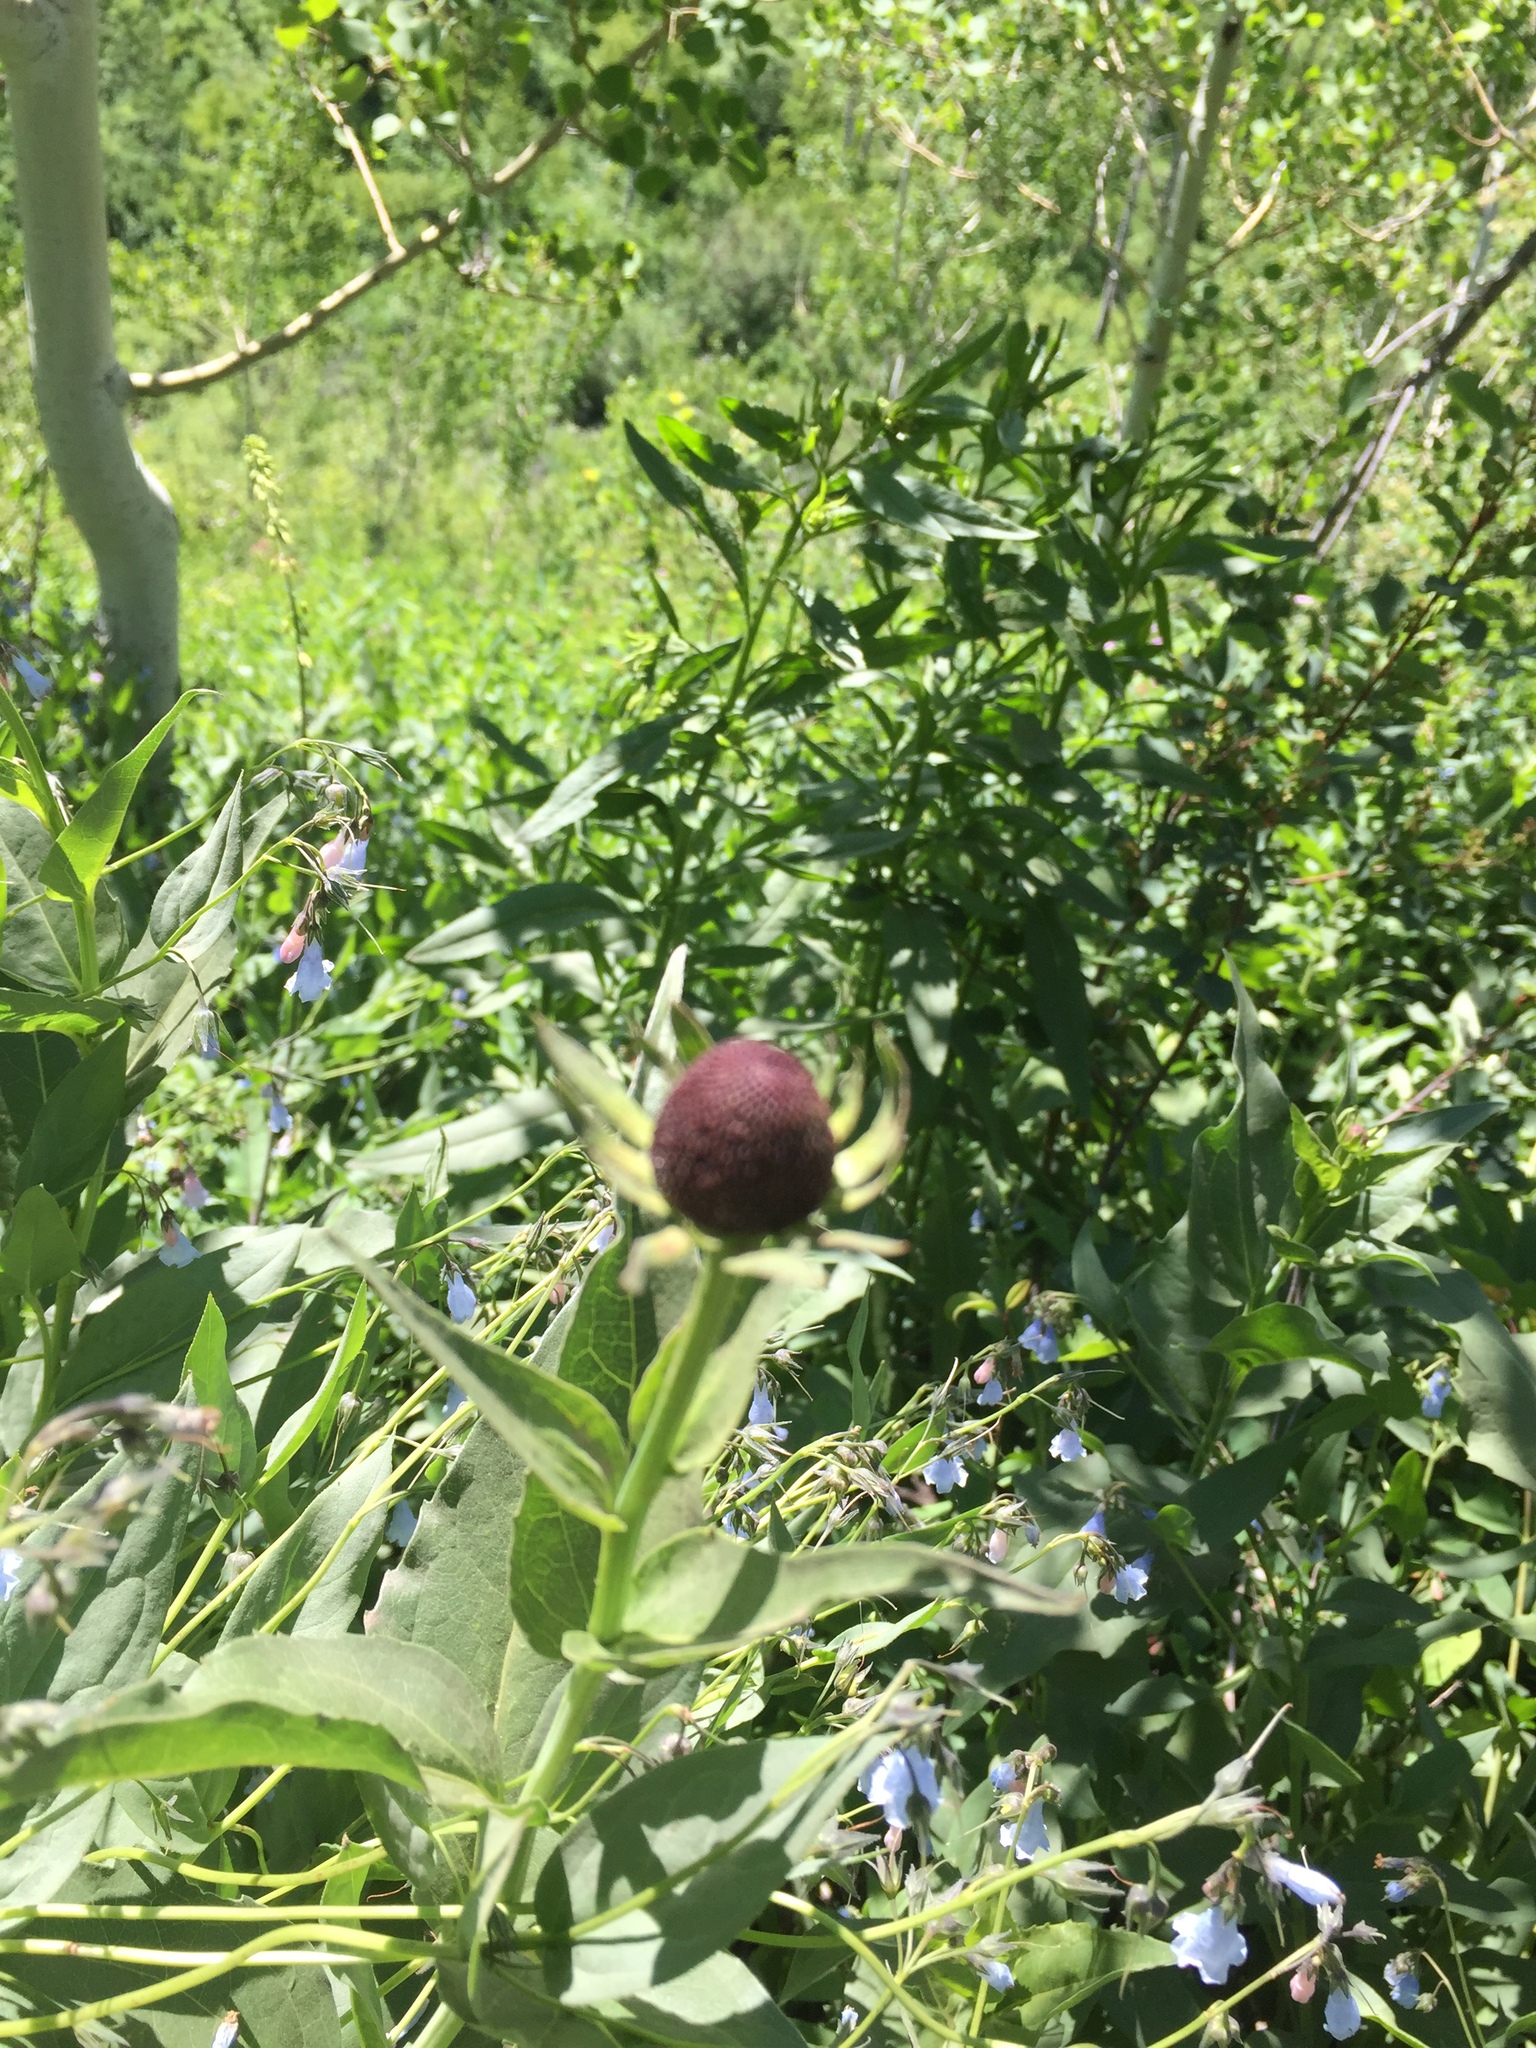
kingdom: Plantae
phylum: Tracheophyta
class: Magnoliopsida
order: Asterales
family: Asteraceae
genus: Rudbeckia
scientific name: Rudbeckia occidentalis
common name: Western coneflower
